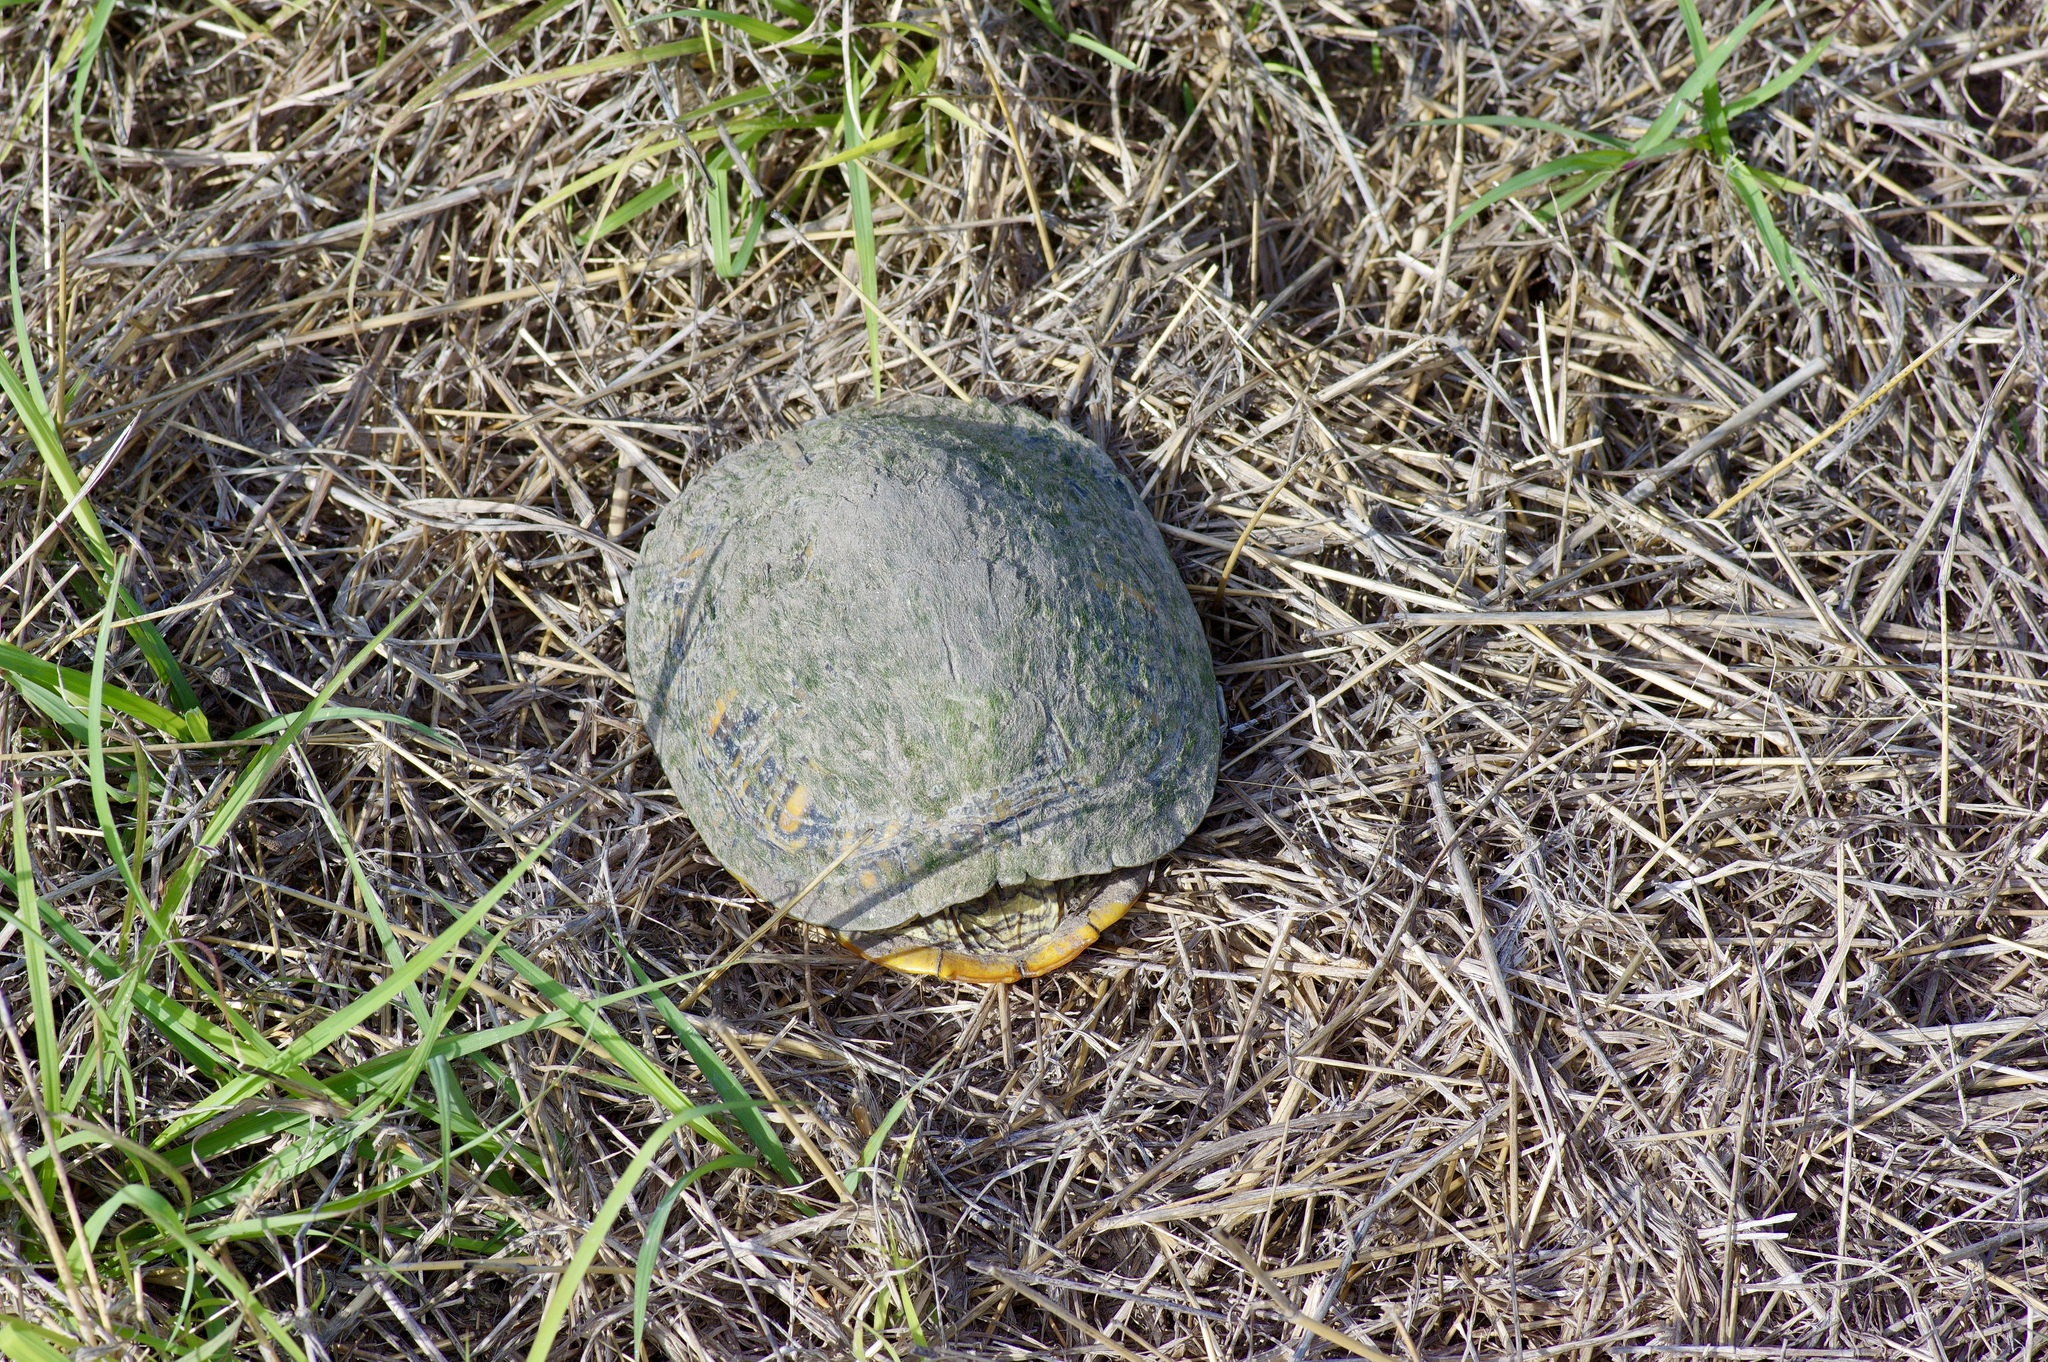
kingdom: Animalia
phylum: Chordata
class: Testudines
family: Emydidae
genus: Trachemys
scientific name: Trachemys scripta
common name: Slider
